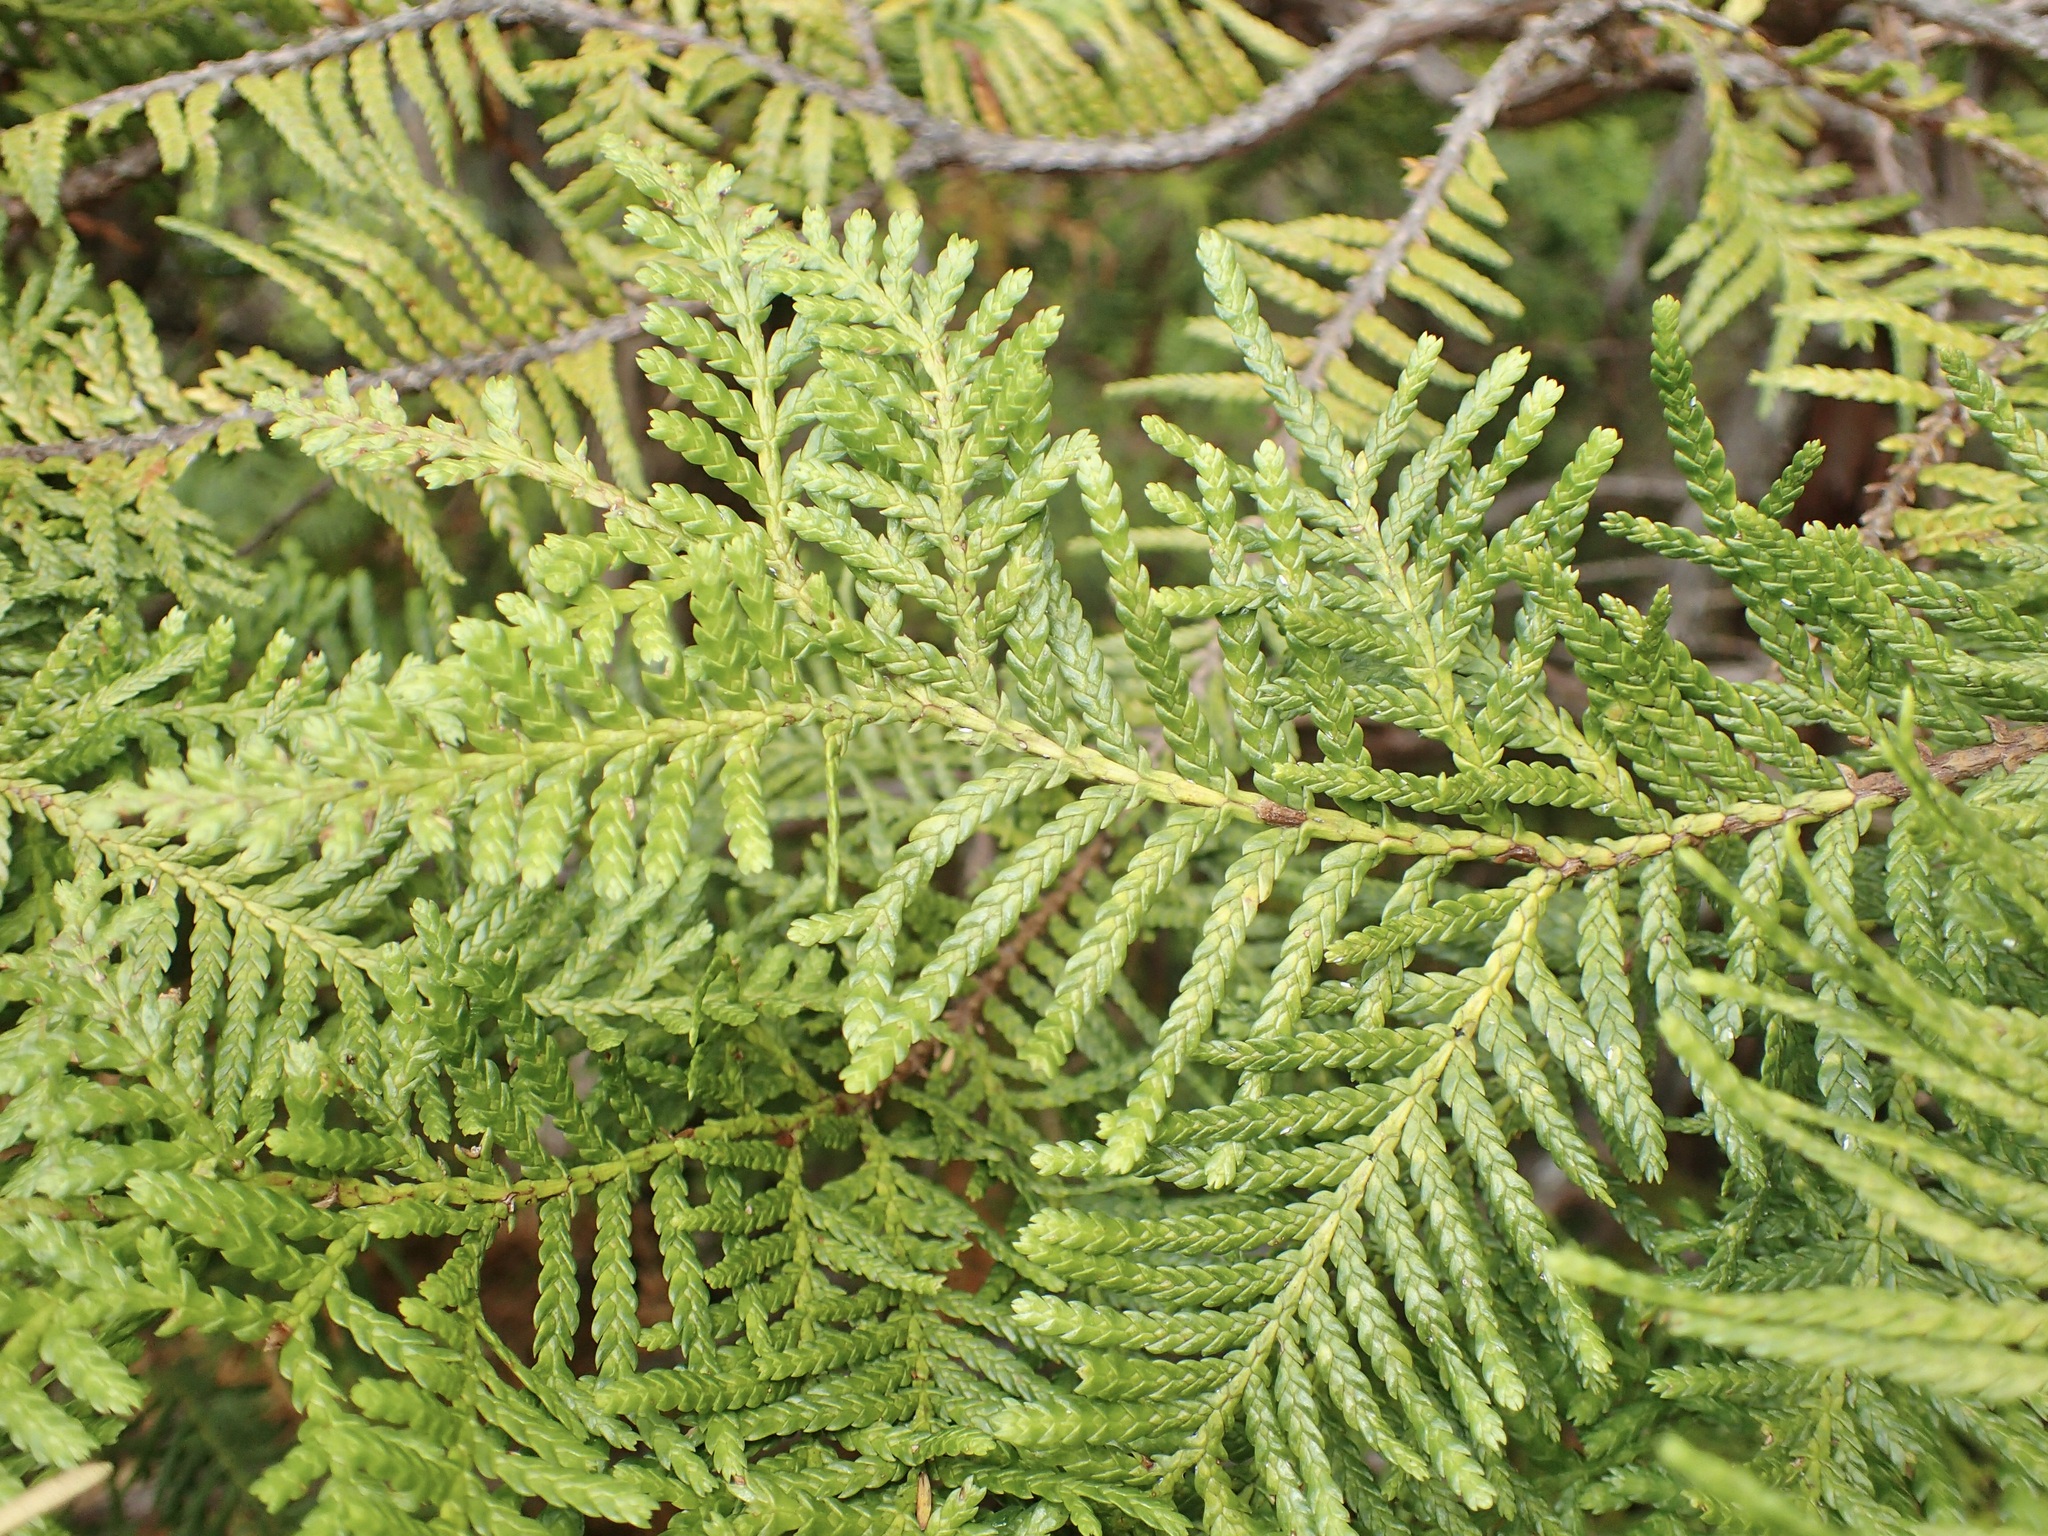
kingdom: Plantae
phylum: Tracheophyta
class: Pinopsida
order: Pinales
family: Cupressaceae
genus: Libocedrus
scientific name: Libocedrus plumosa
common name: New zealand cedar
